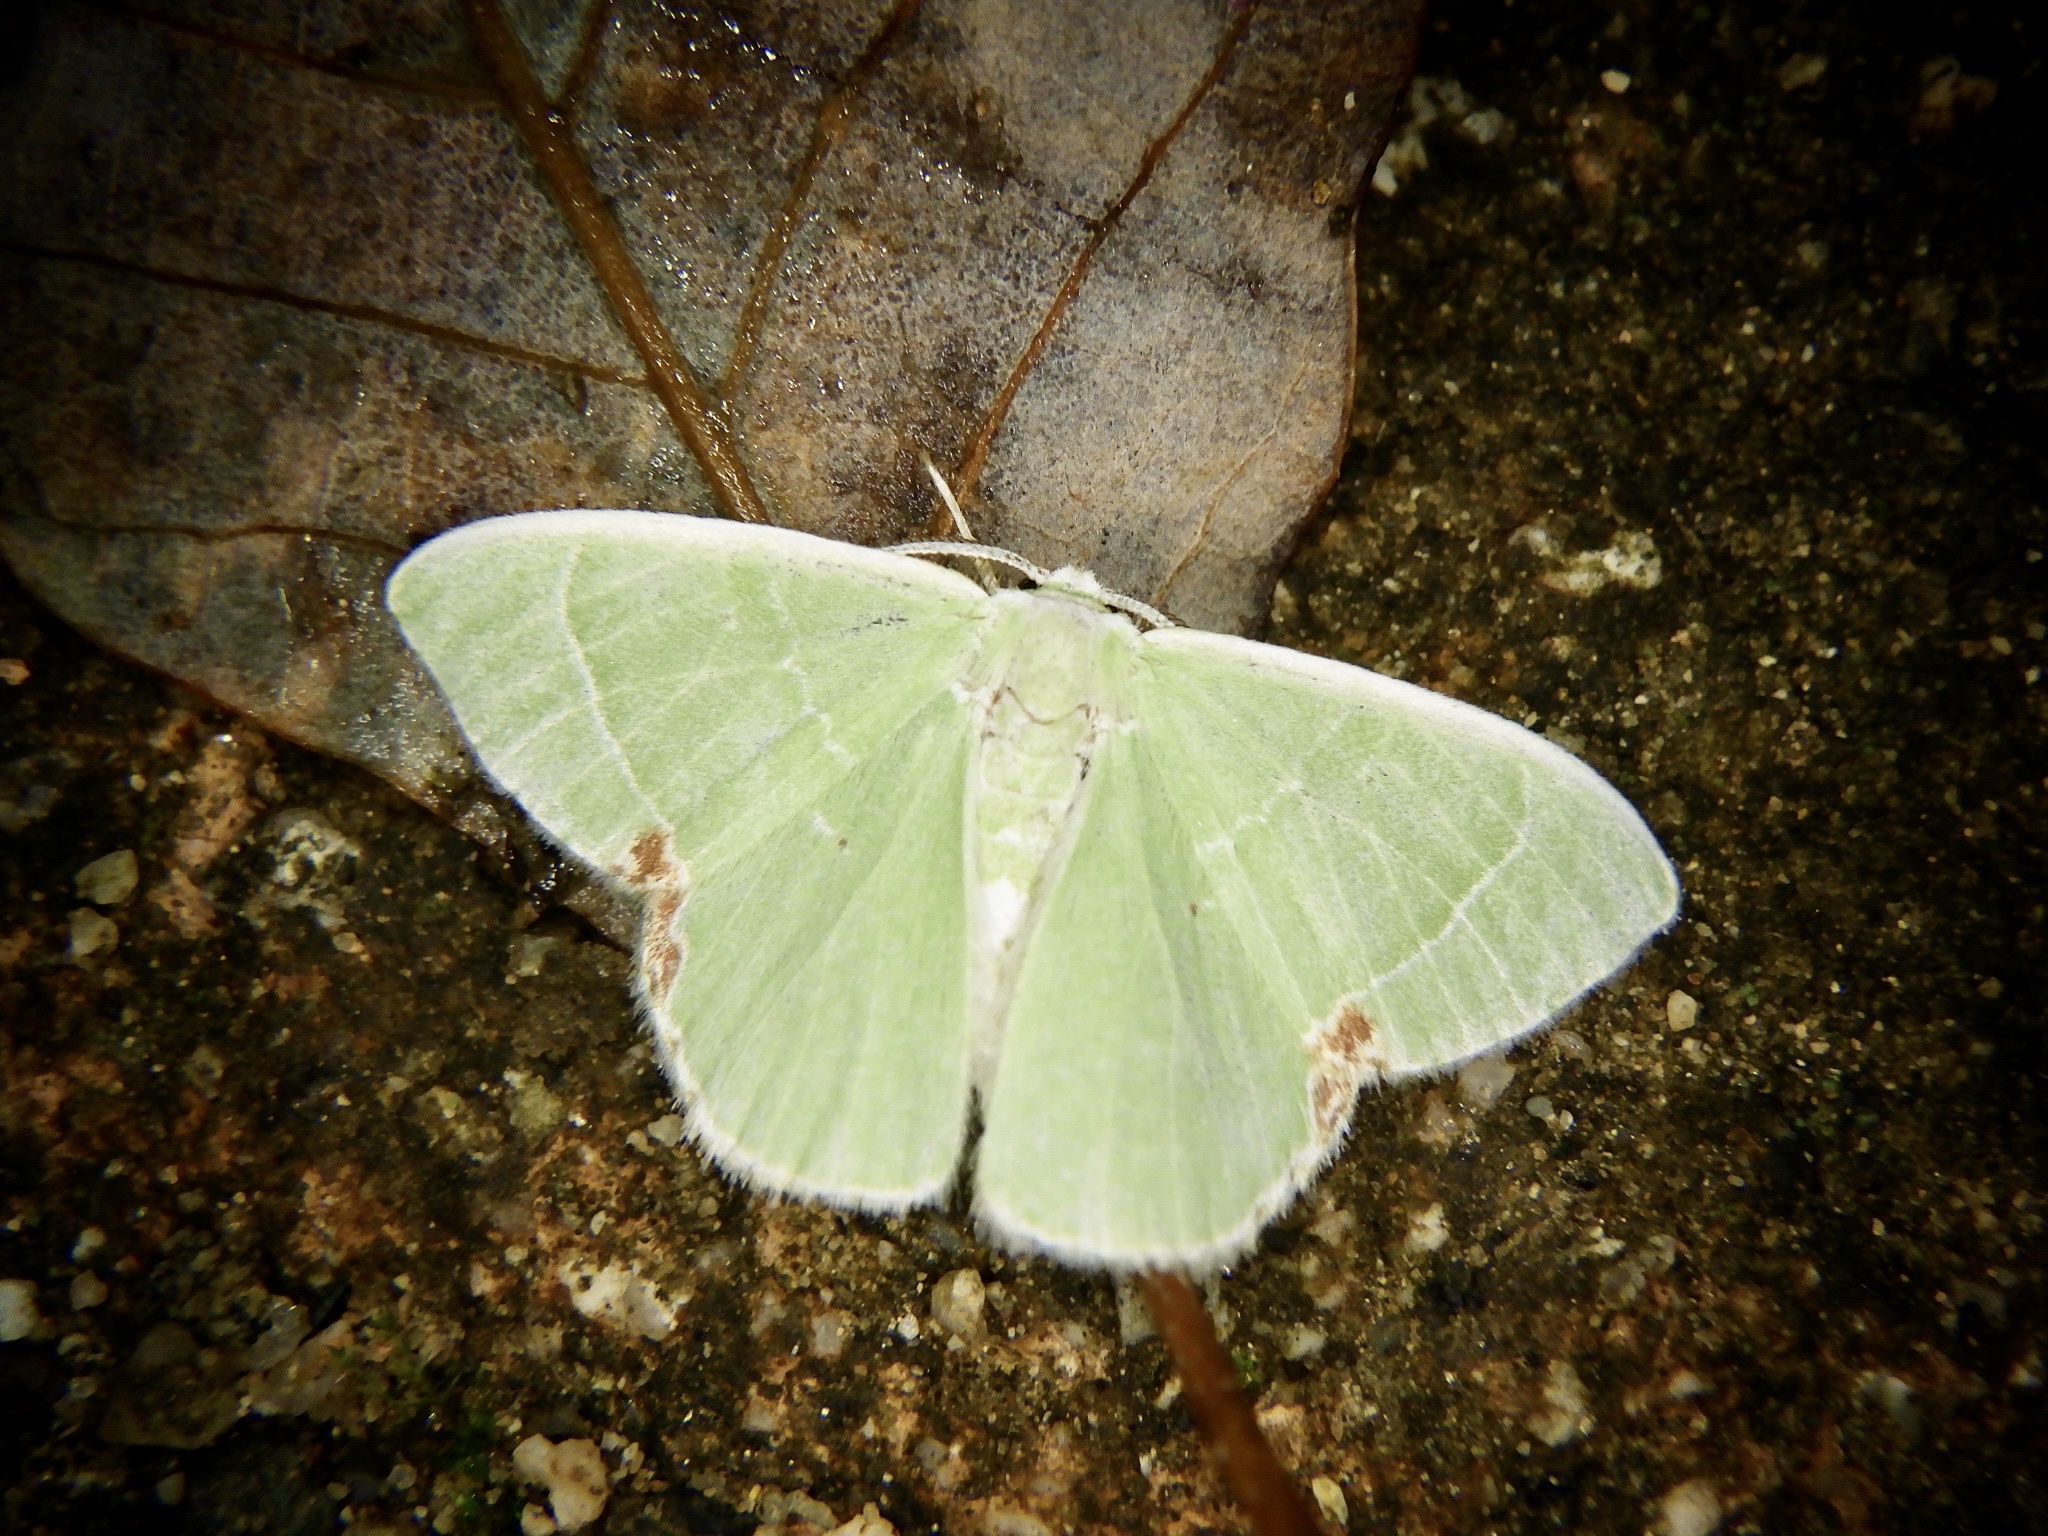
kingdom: Animalia
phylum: Arthropoda
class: Insecta
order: Lepidoptera
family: Geometridae
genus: Comibaena
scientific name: Comibaena amoenaria
